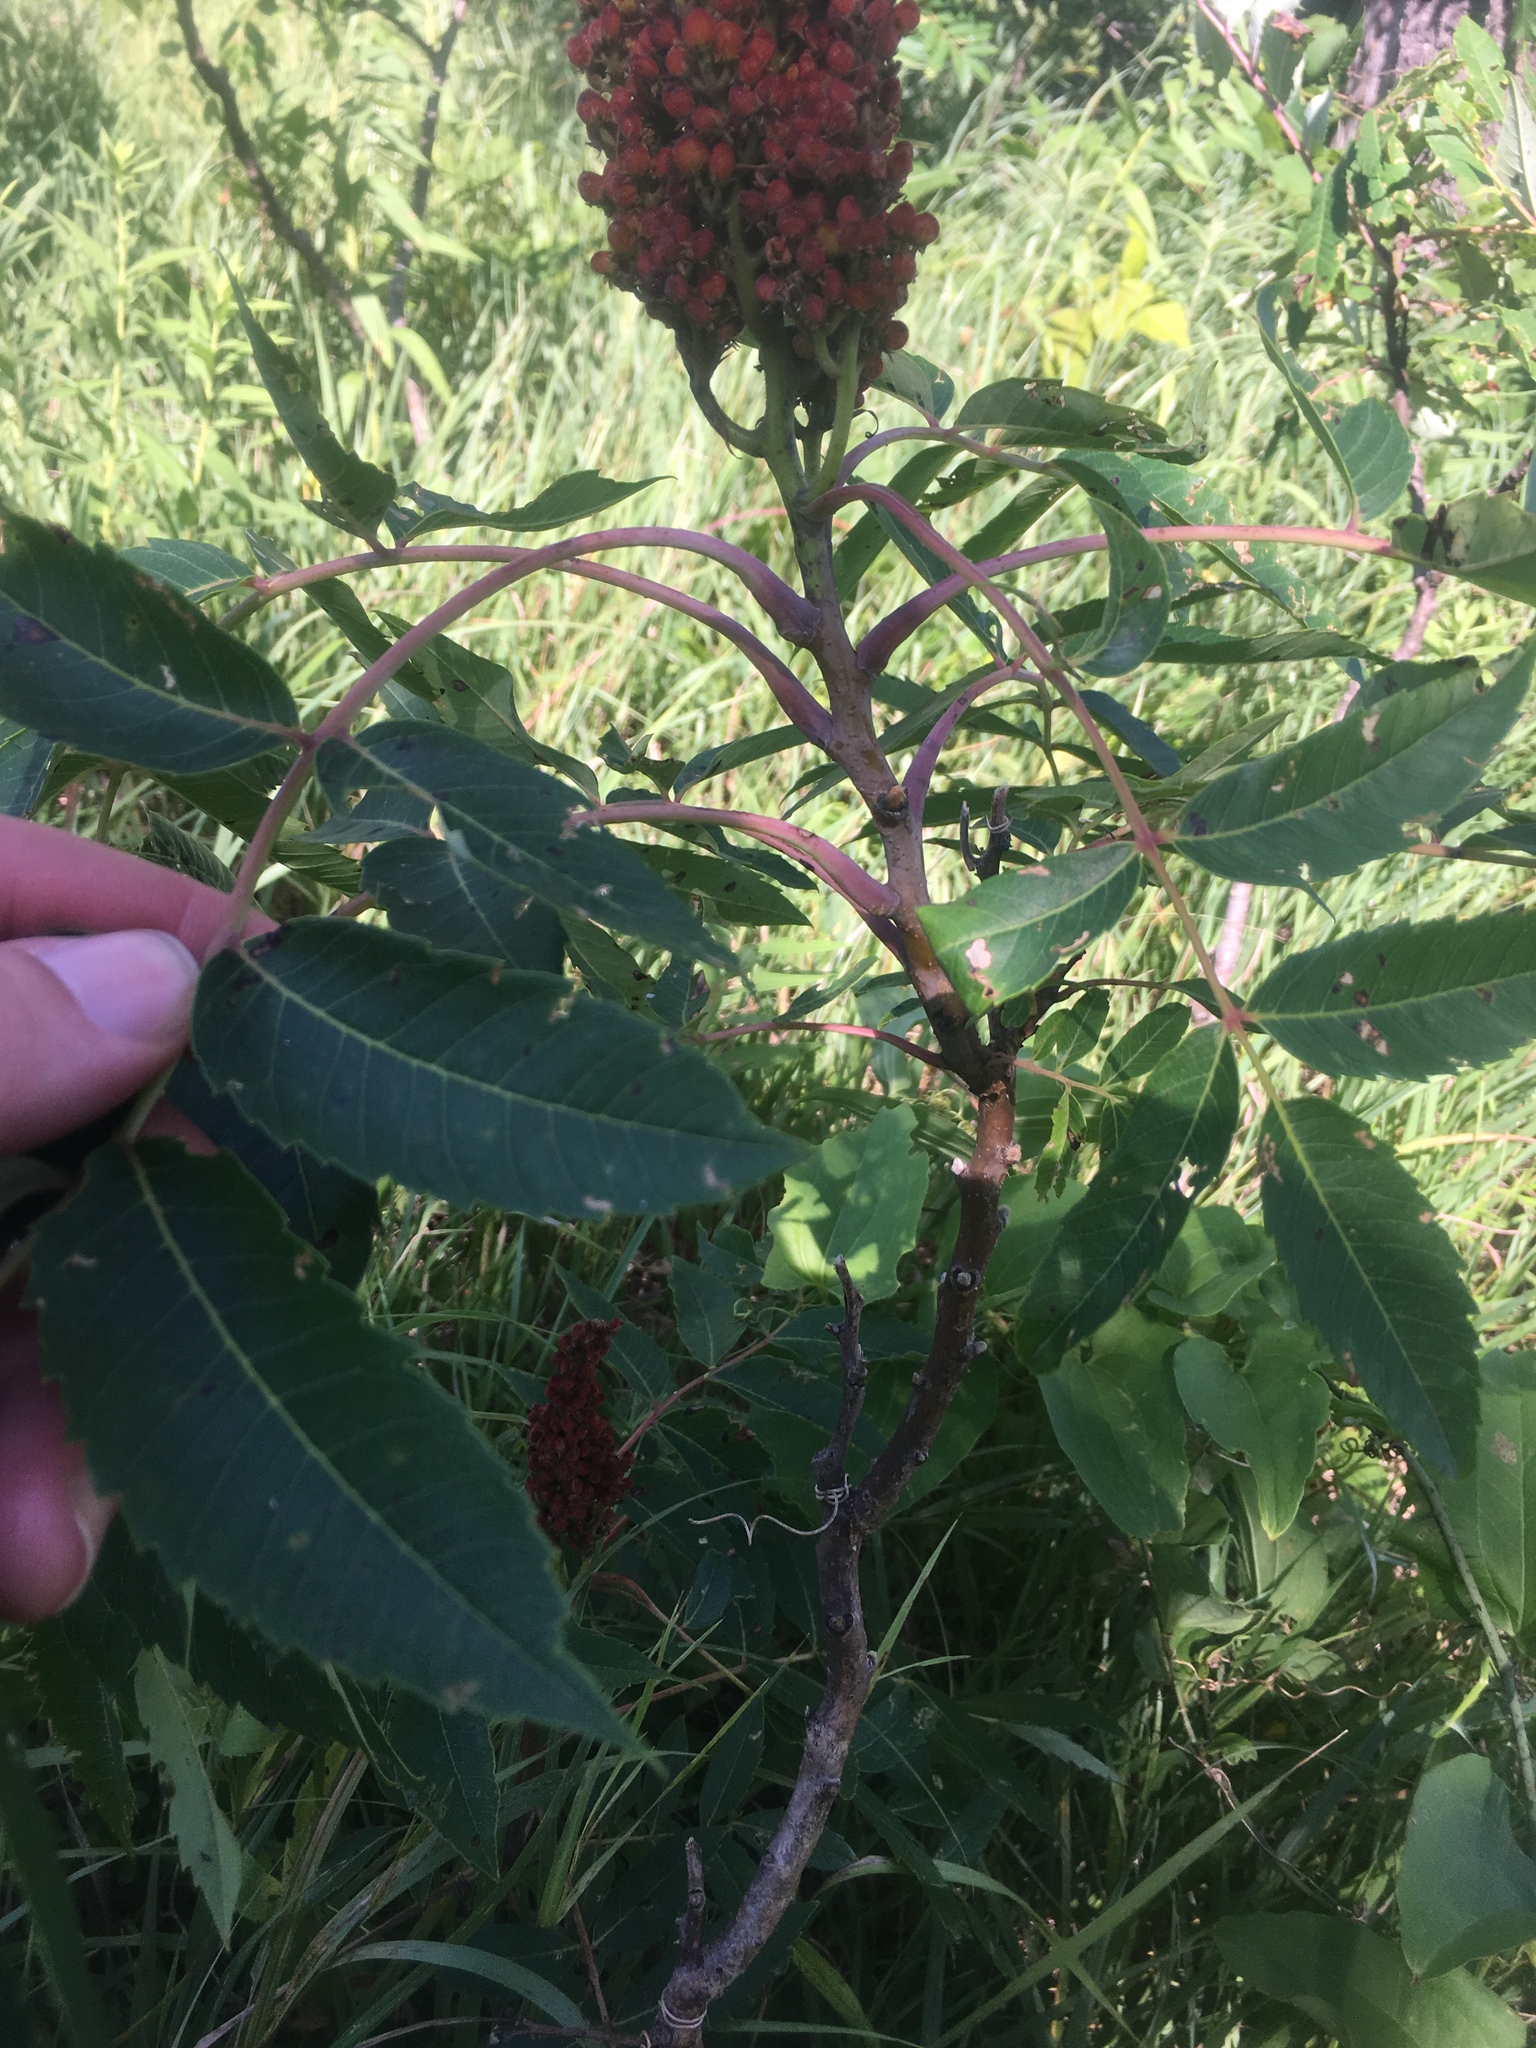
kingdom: Plantae
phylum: Tracheophyta
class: Magnoliopsida
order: Sapindales
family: Anacardiaceae
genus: Rhus
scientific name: Rhus glabra
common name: Scarlet sumac
